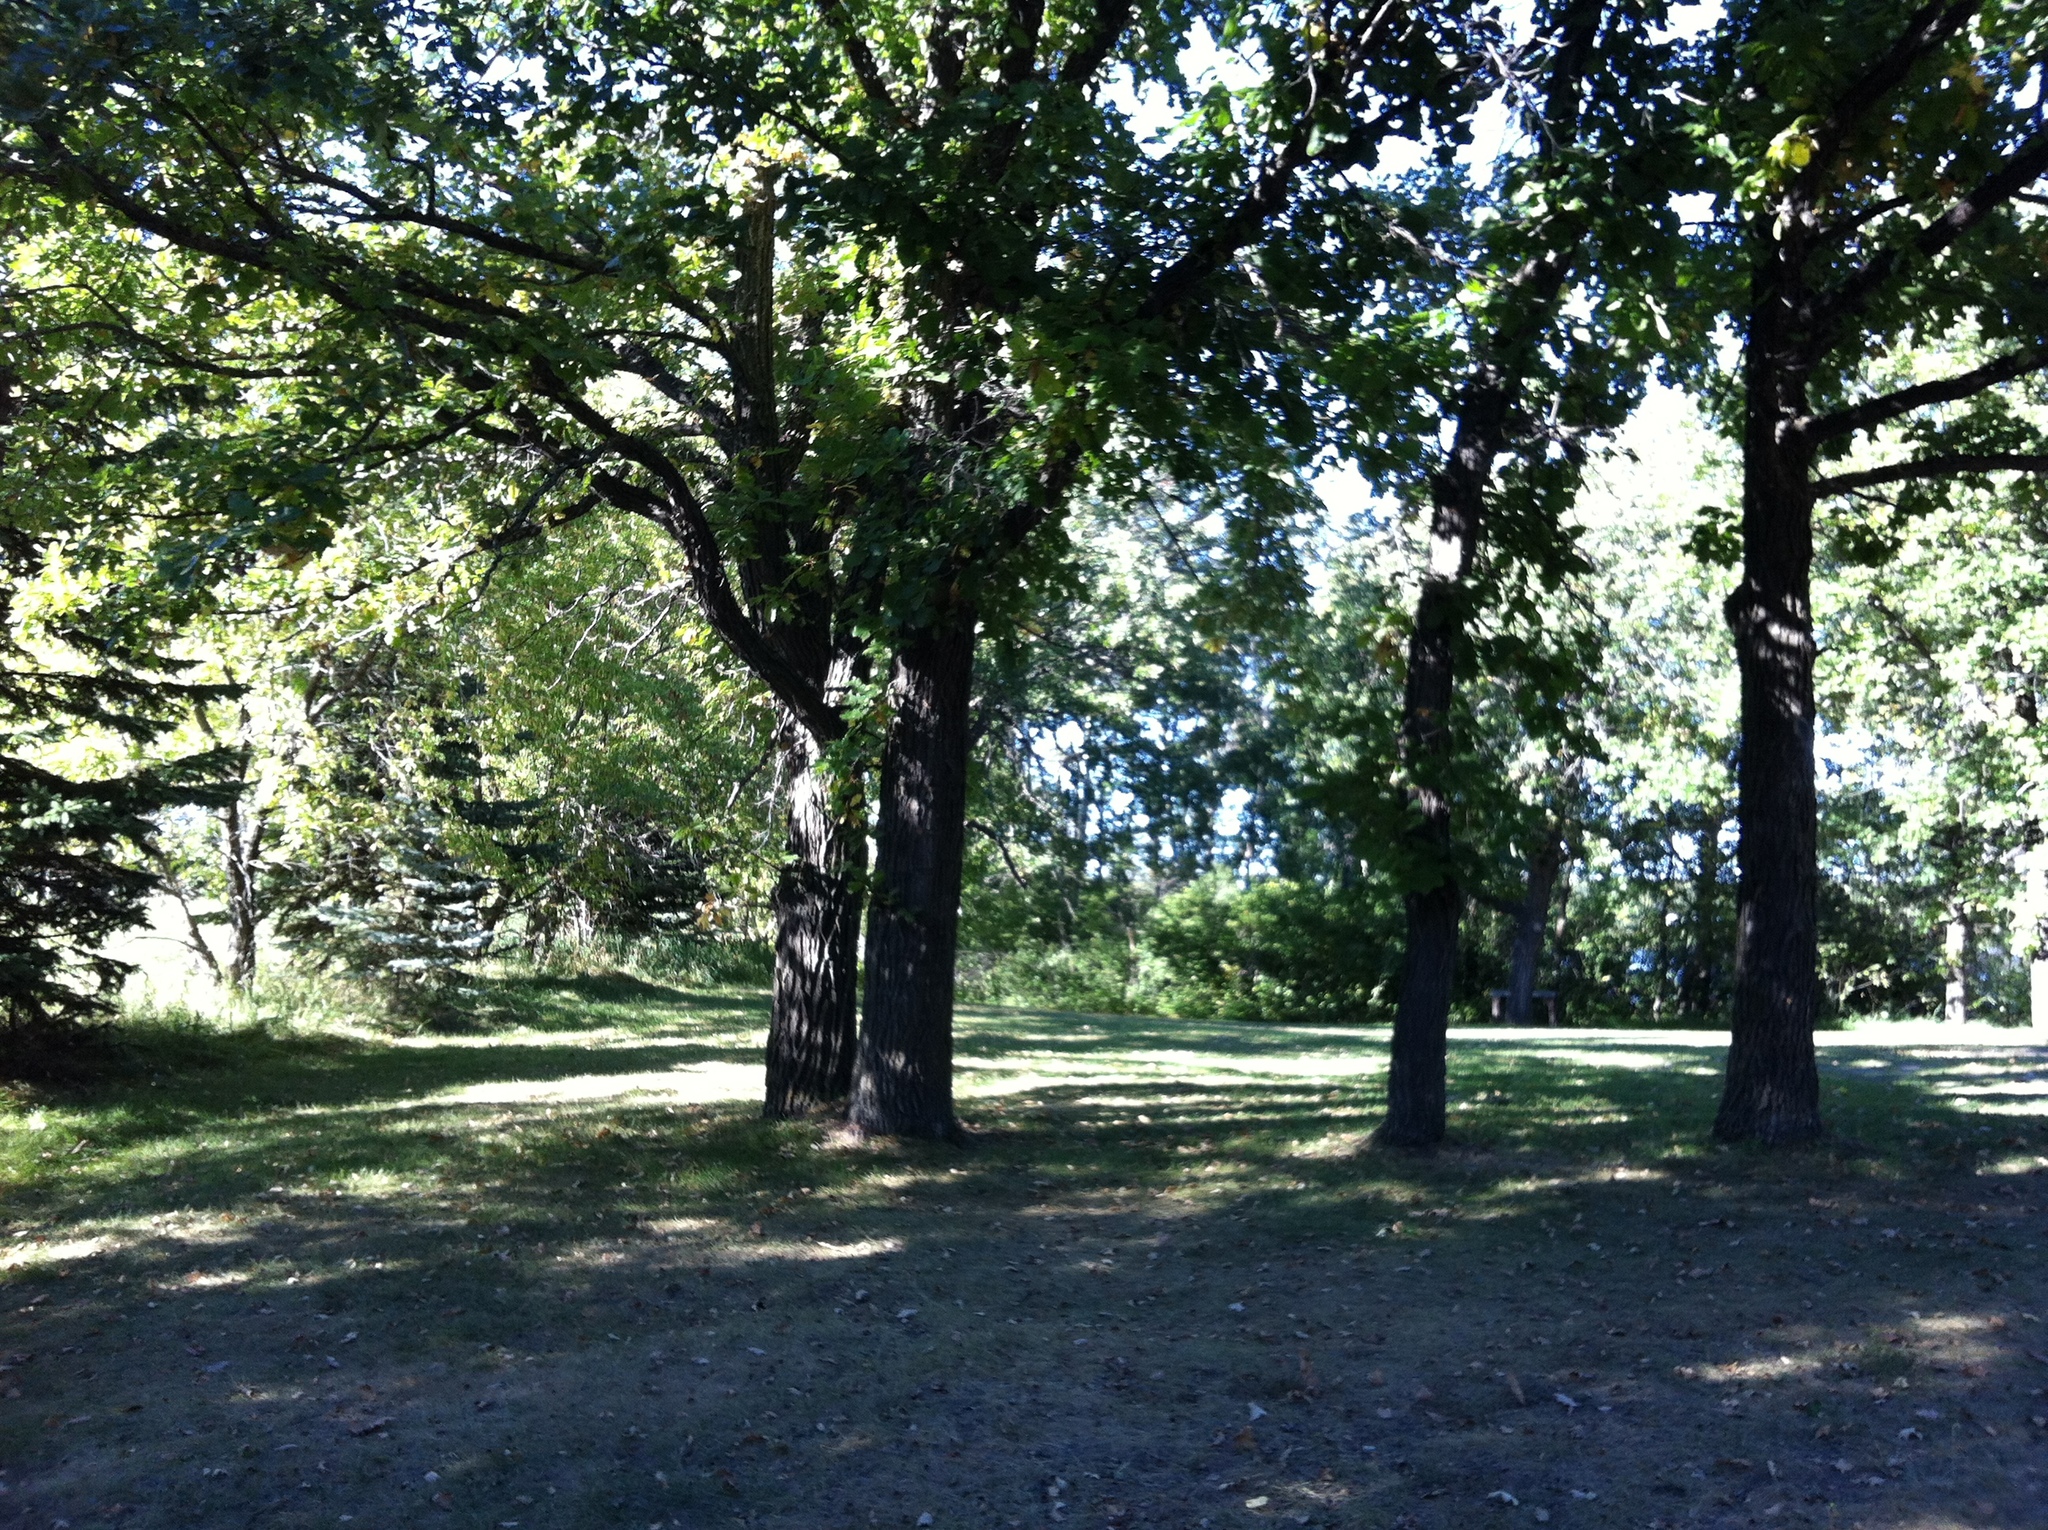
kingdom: Plantae
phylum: Tracheophyta
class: Magnoliopsida
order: Fagales
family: Fagaceae
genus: Quercus
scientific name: Quercus macrocarpa
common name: Bur oak
